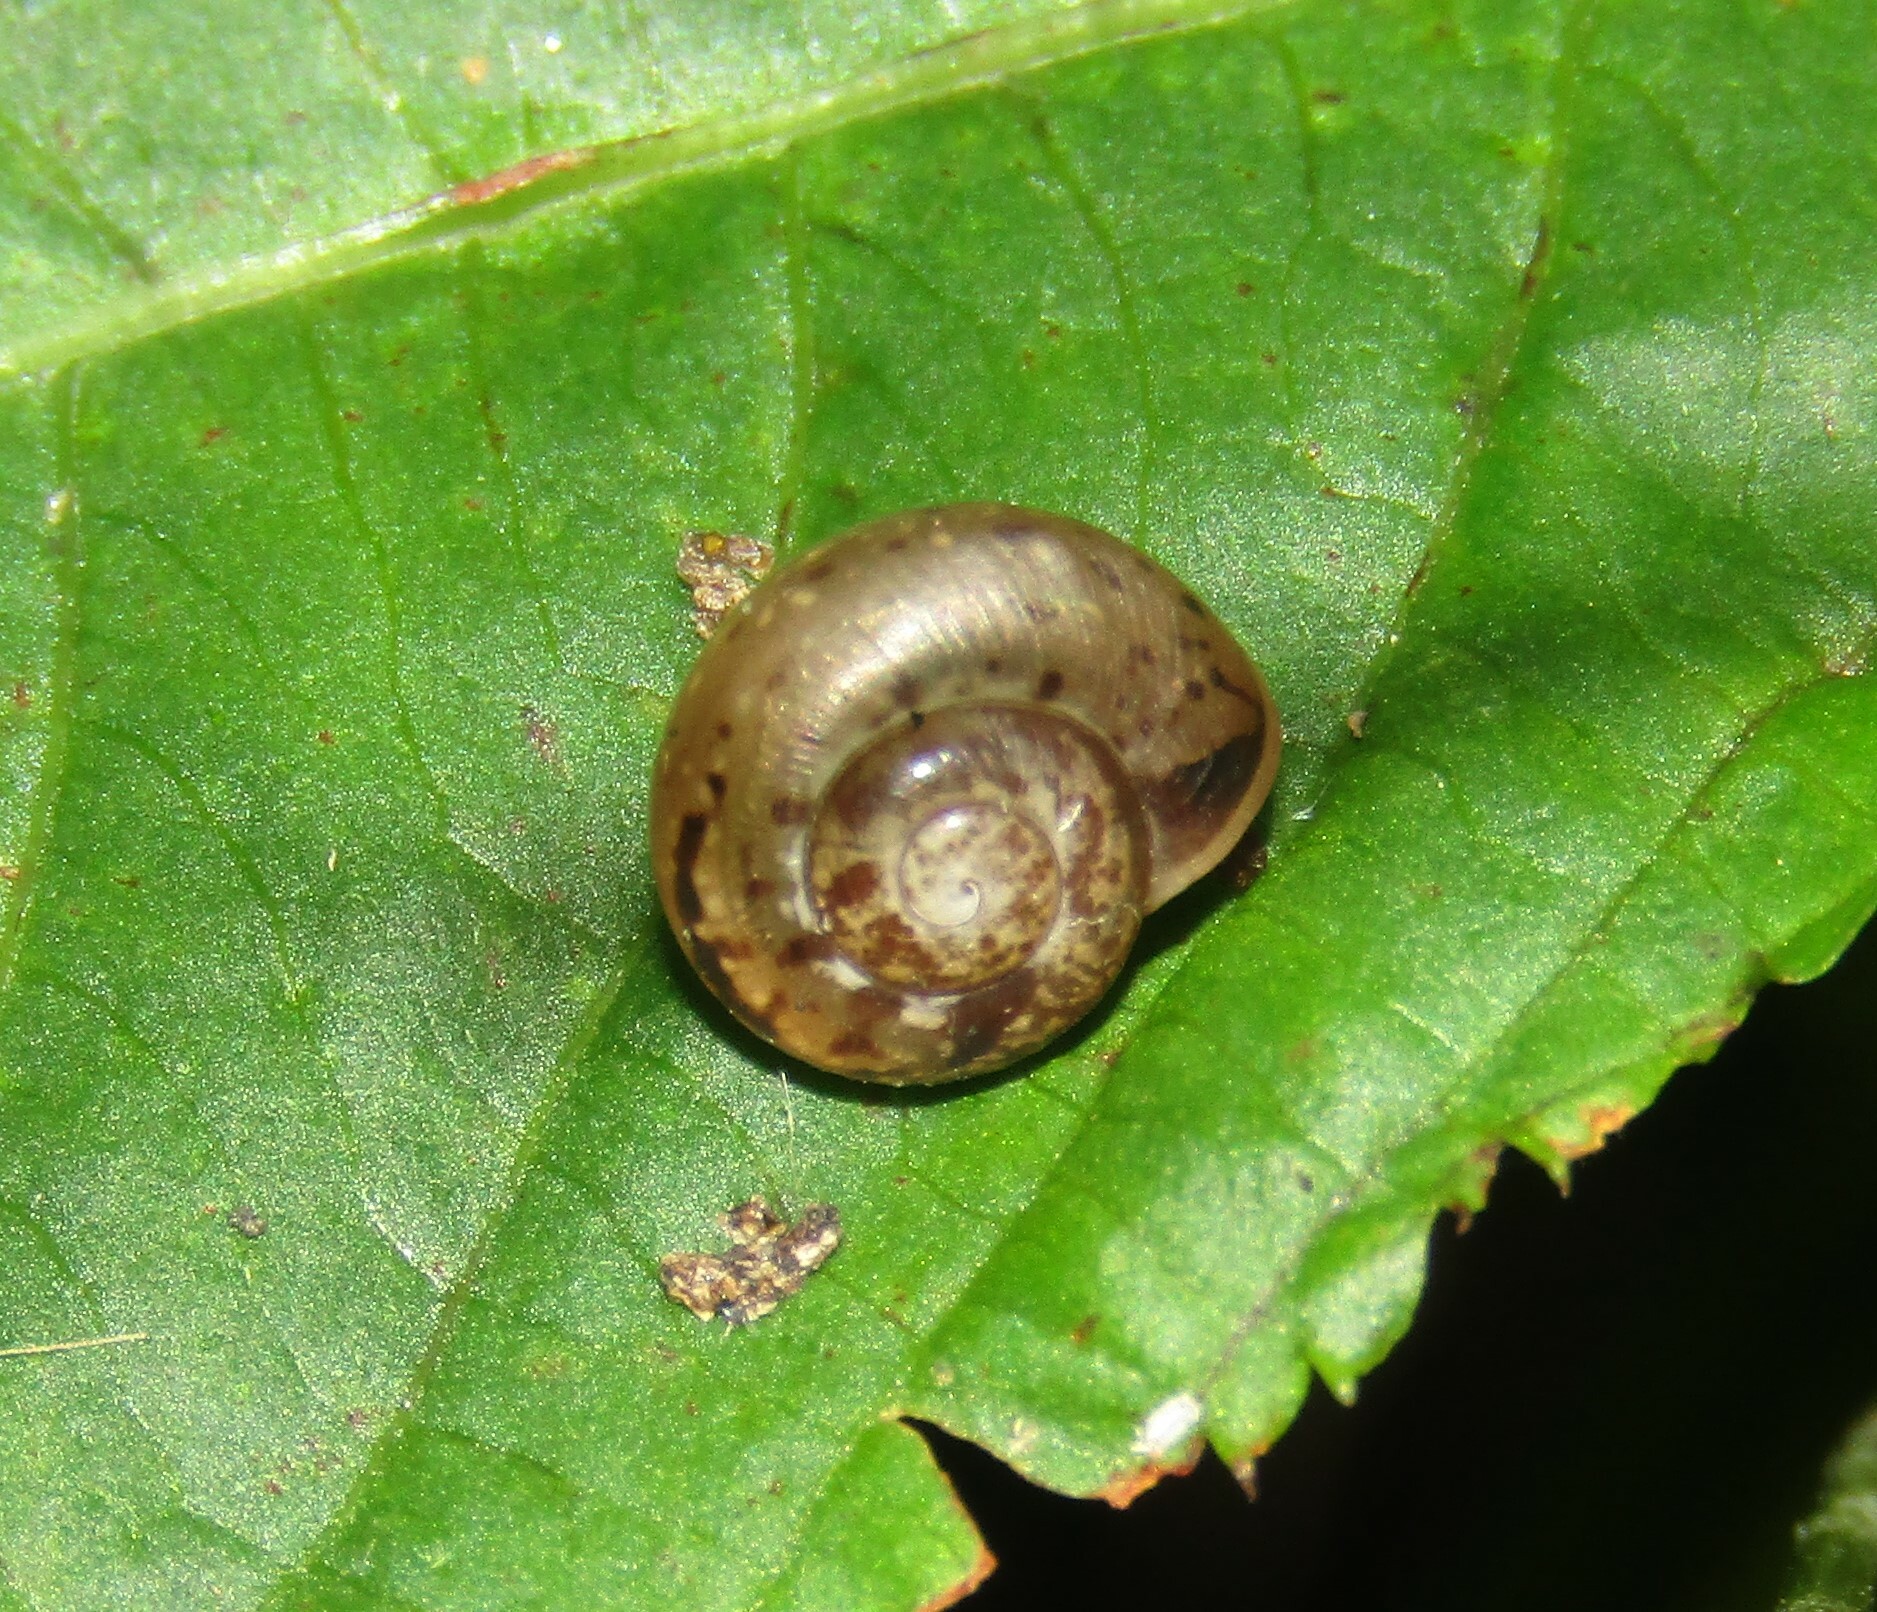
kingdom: Animalia
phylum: Mollusca
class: Gastropoda
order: Stylommatophora
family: Camaenidae
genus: Fruticicola
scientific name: Fruticicola fruticum
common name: Bush snail
